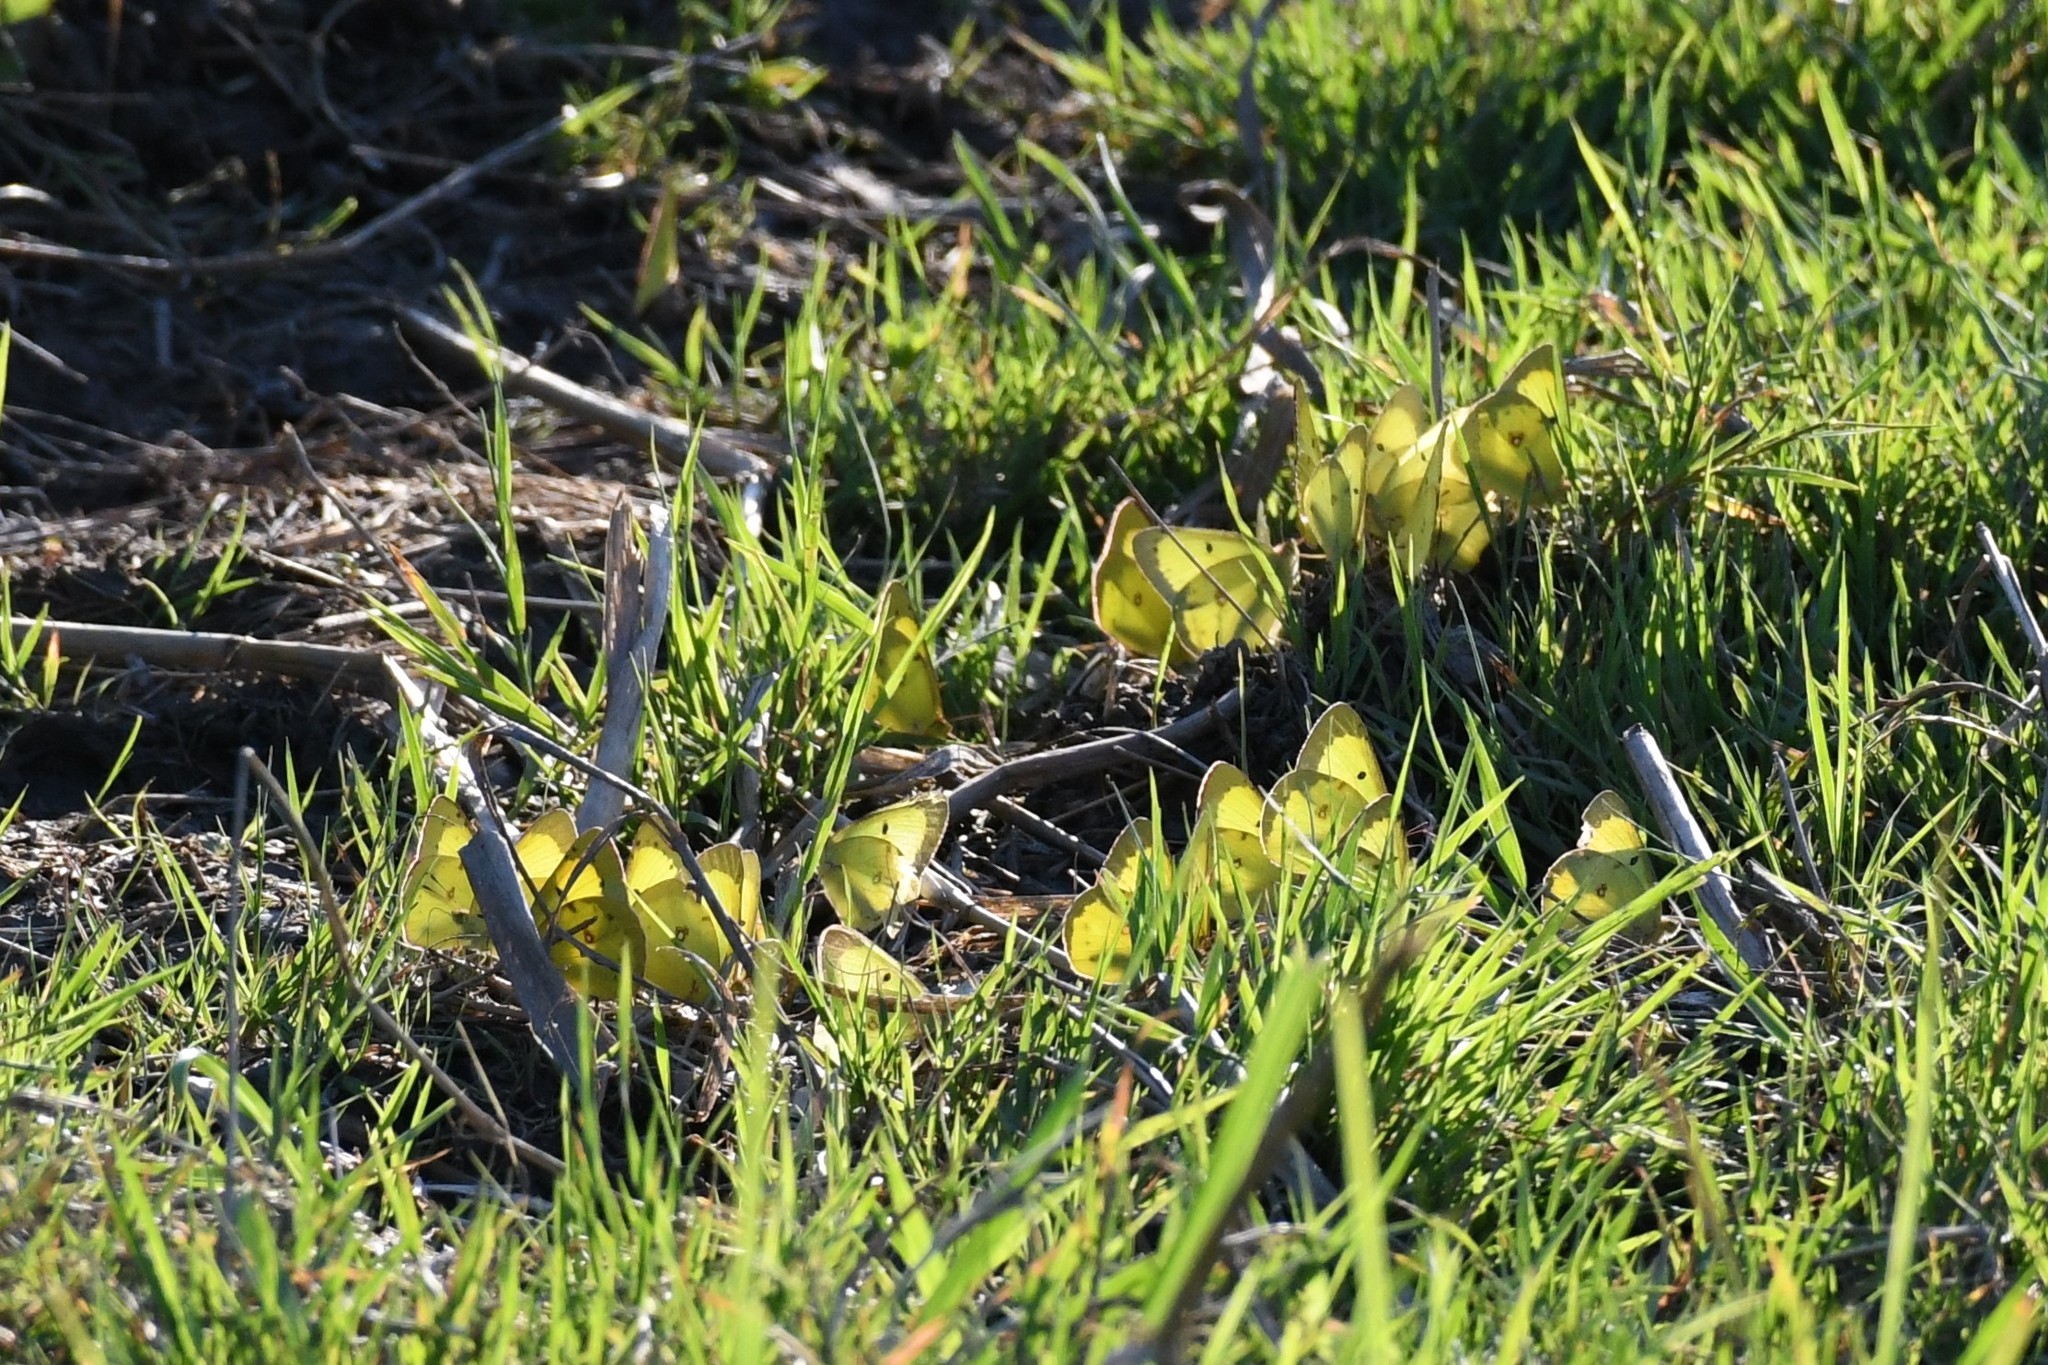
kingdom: Animalia
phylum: Arthropoda
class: Insecta
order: Lepidoptera
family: Pieridae
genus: Colias
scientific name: Colias philodice
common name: Clouded sulphur
